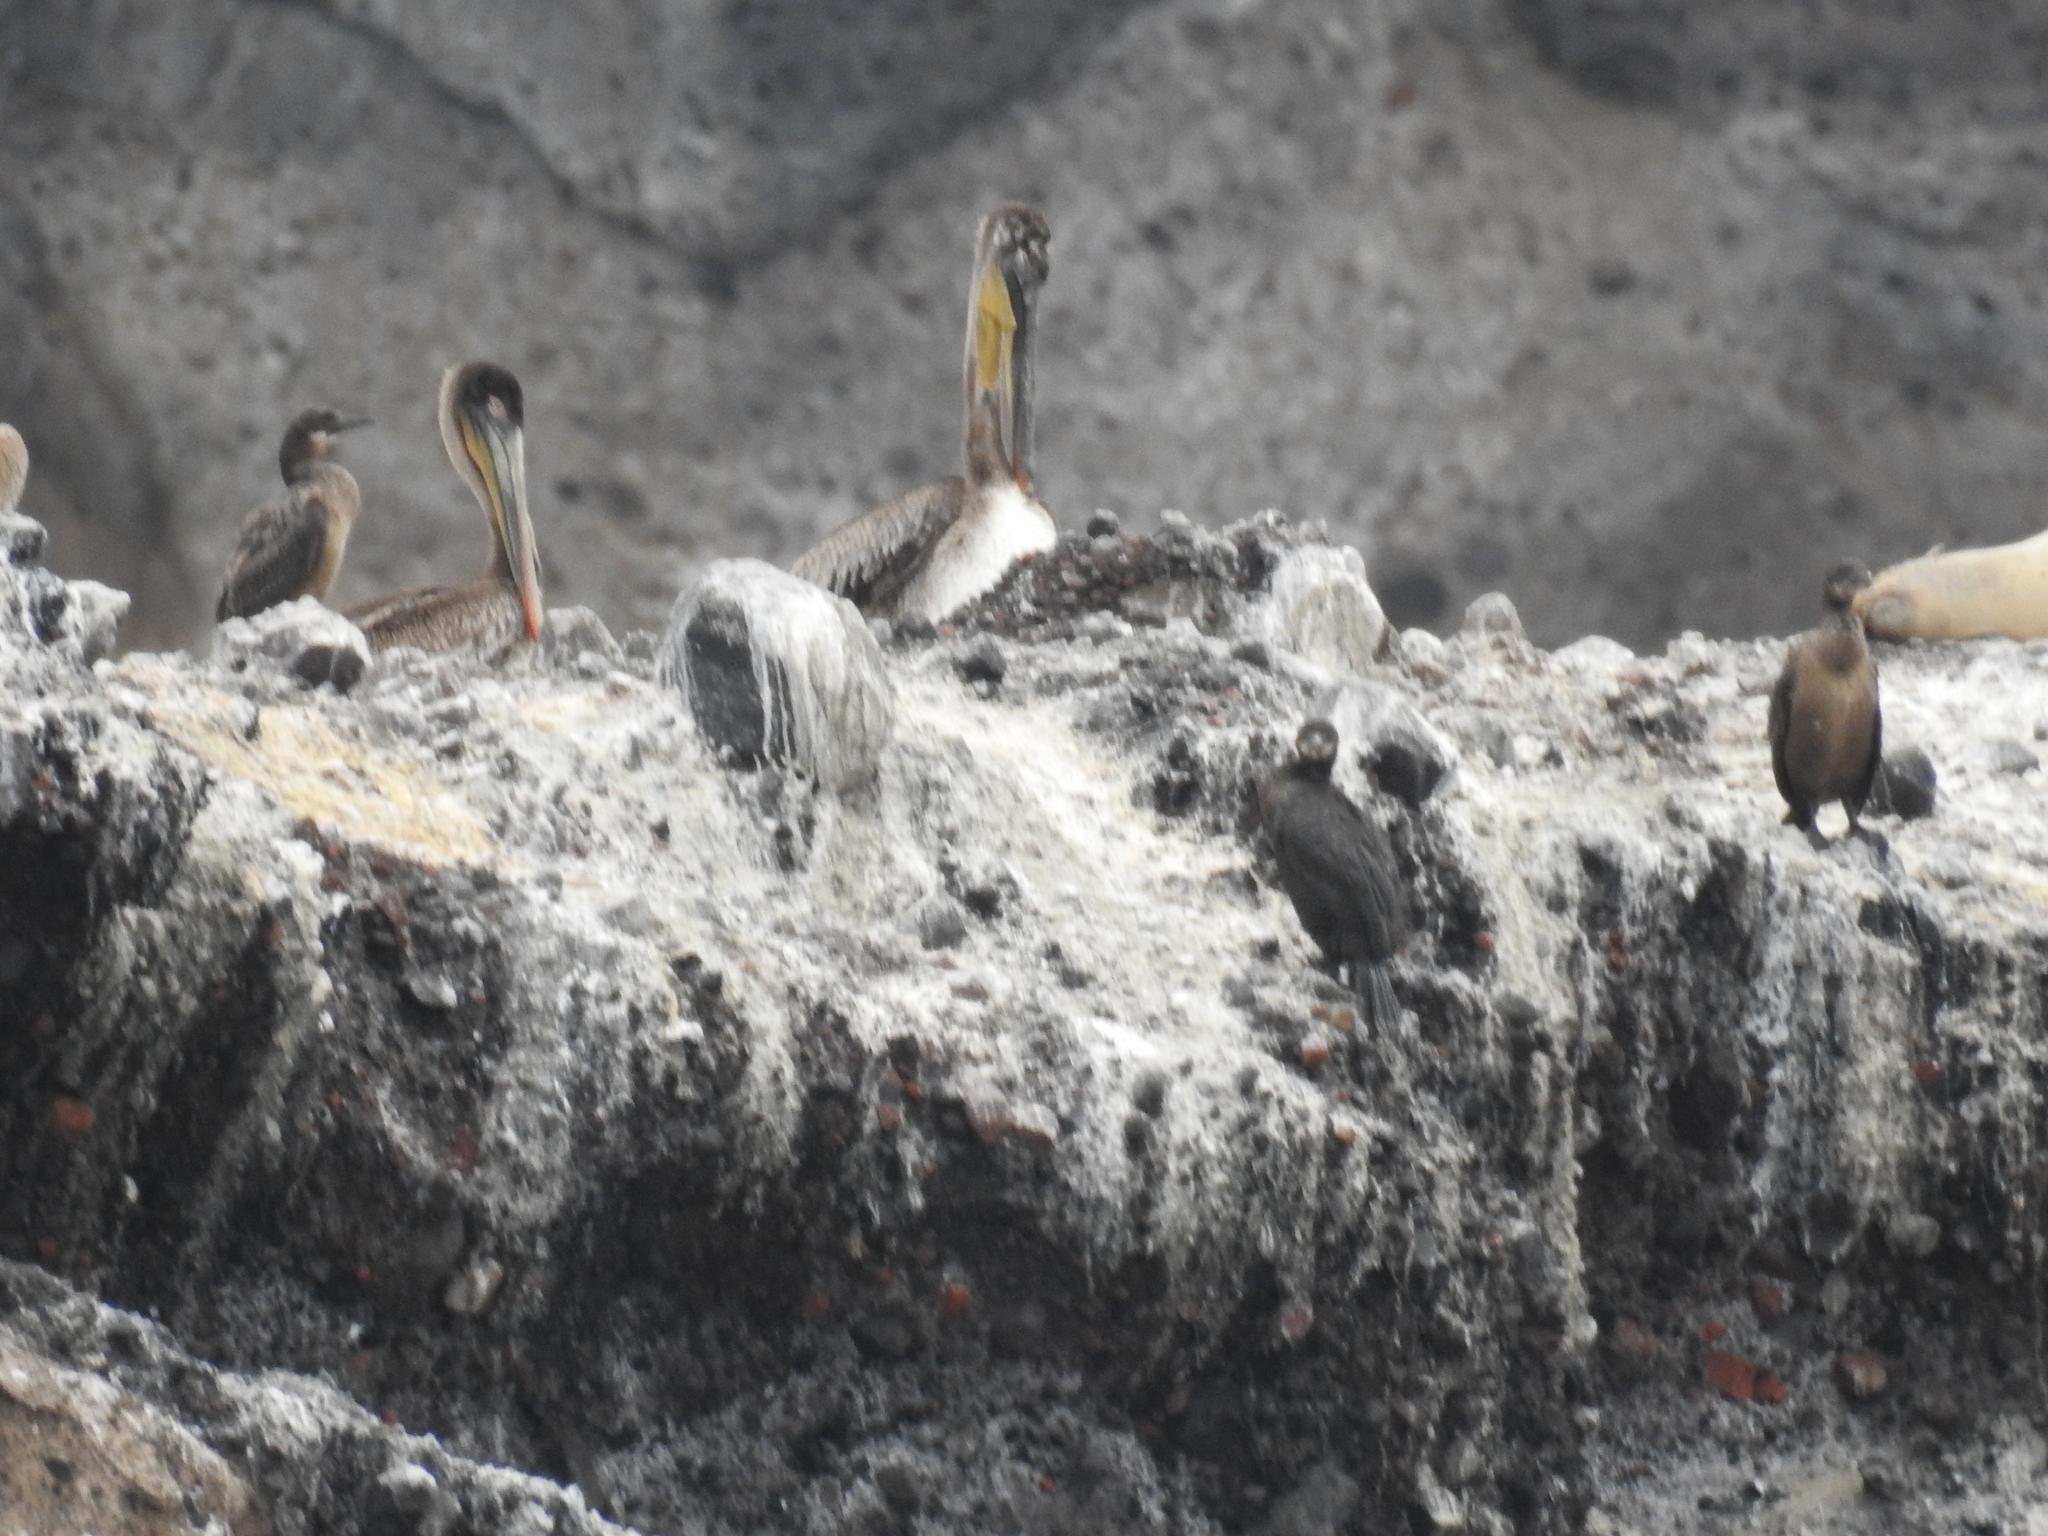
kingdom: Animalia
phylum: Chordata
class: Aves
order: Pelecaniformes
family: Pelecanidae
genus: Pelecanus
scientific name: Pelecanus occidentalis
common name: Brown pelican
